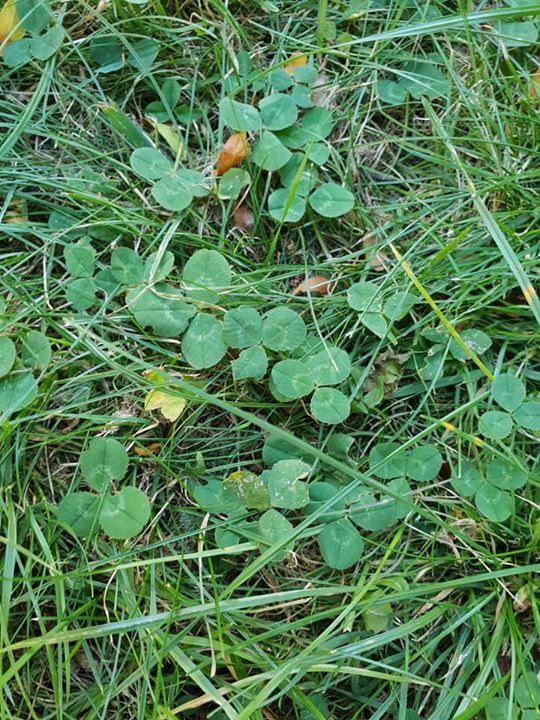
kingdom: Plantae
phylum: Tracheophyta
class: Magnoliopsida
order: Fabales
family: Fabaceae
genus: Trifolium
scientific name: Trifolium repens
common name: White clover
